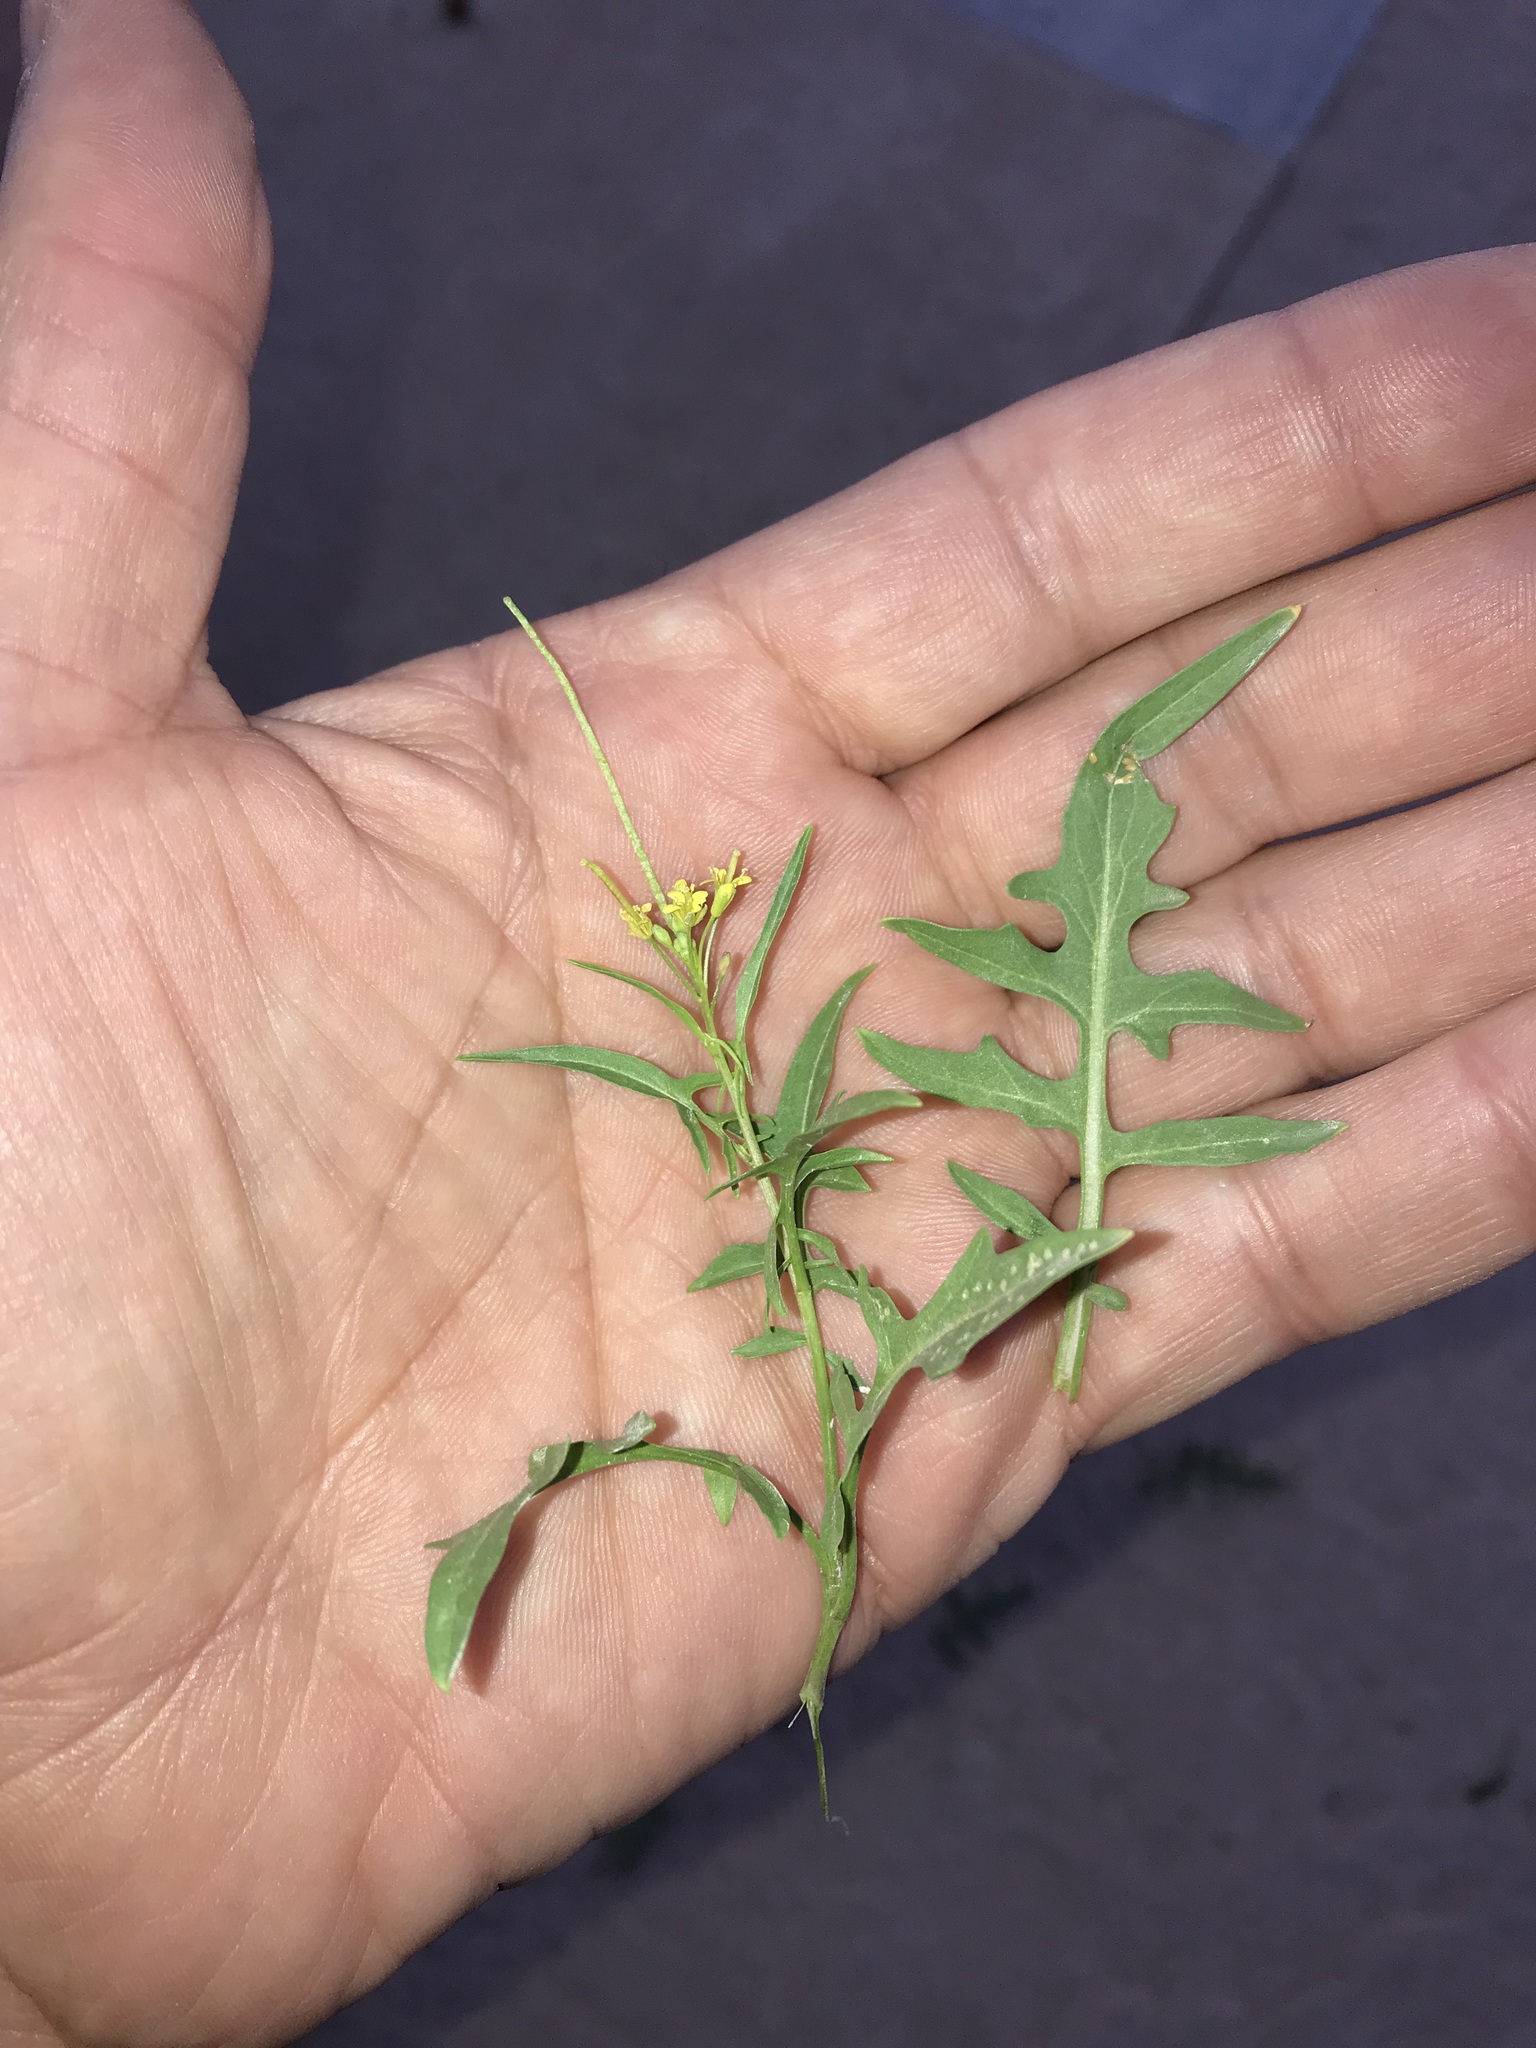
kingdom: Plantae
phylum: Tracheophyta
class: Magnoliopsida
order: Brassicales
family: Brassicaceae
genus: Sisymbrium
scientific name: Sisymbrium irio
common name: London rocket
